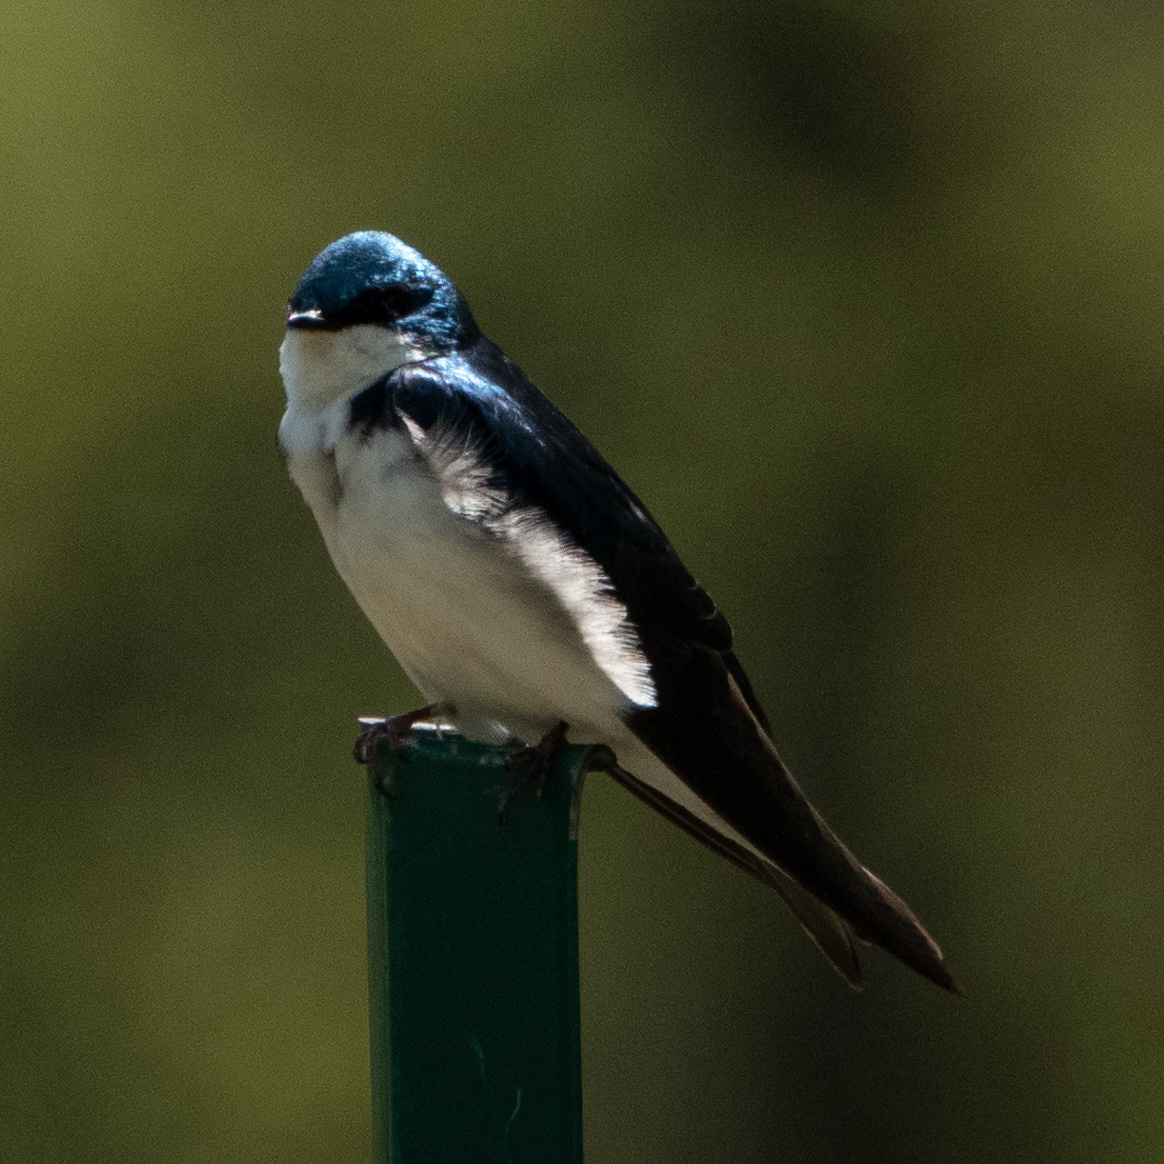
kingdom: Animalia
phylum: Chordata
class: Aves
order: Passeriformes
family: Hirundinidae
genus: Tachycineta
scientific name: Tachycineta bicolor
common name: Tree swallow
